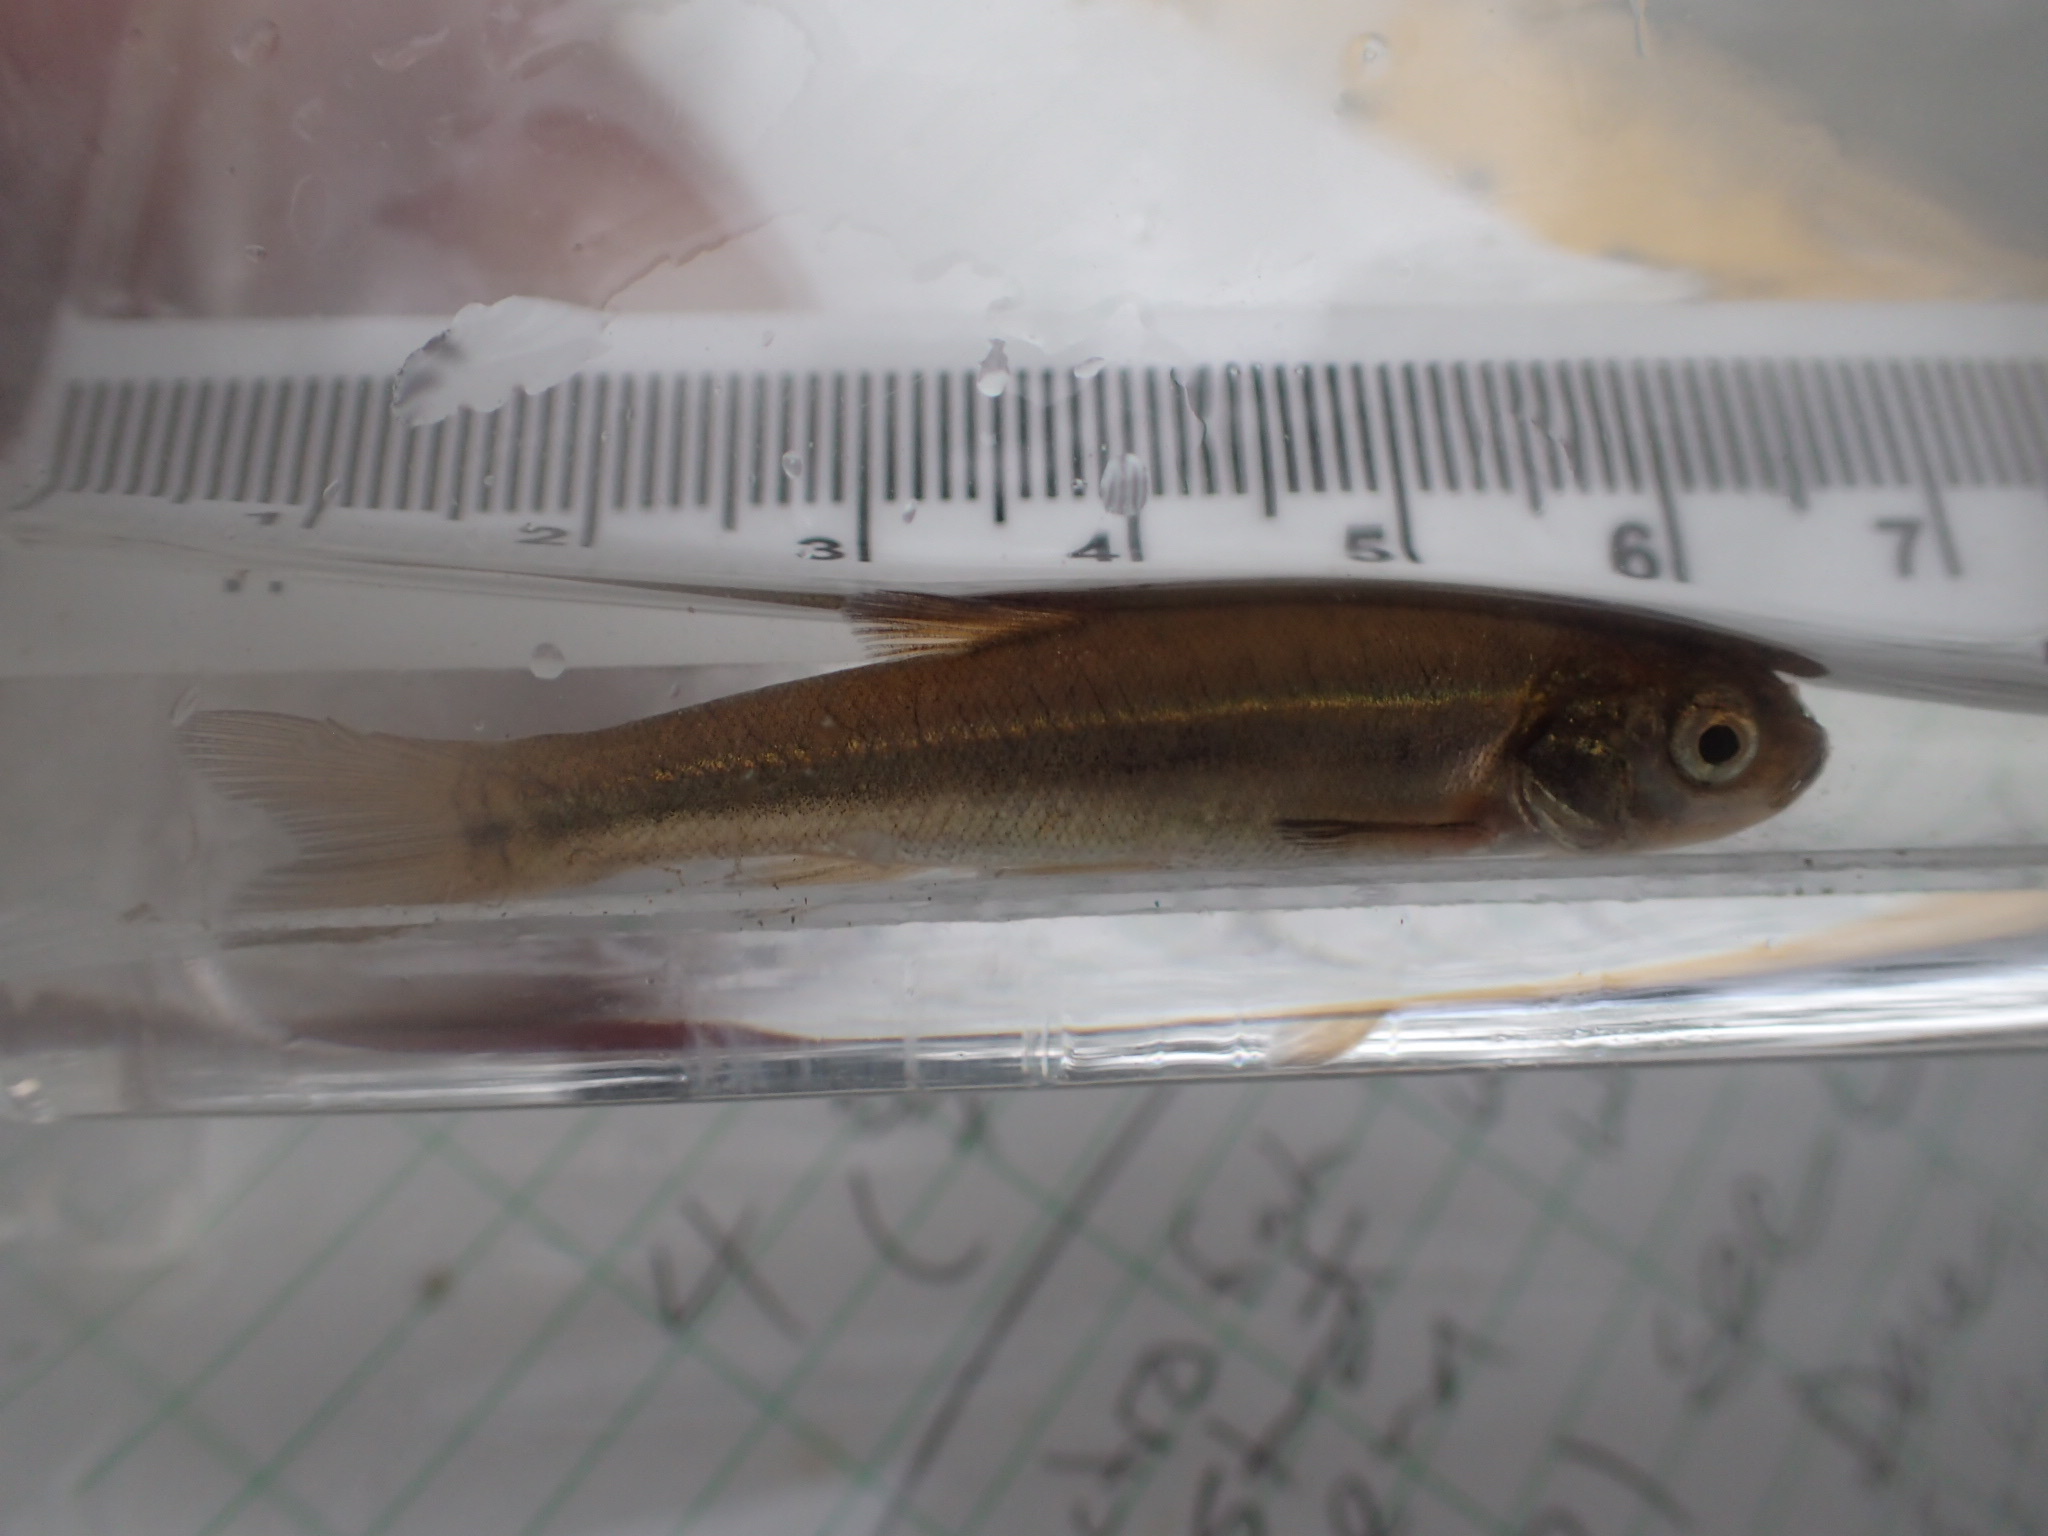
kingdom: Animalia
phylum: Chordata
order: Cypriniformes
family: Cyprinidae
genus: Margariscus
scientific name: Margariscus nachtriebi
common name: Northern pearl dace
